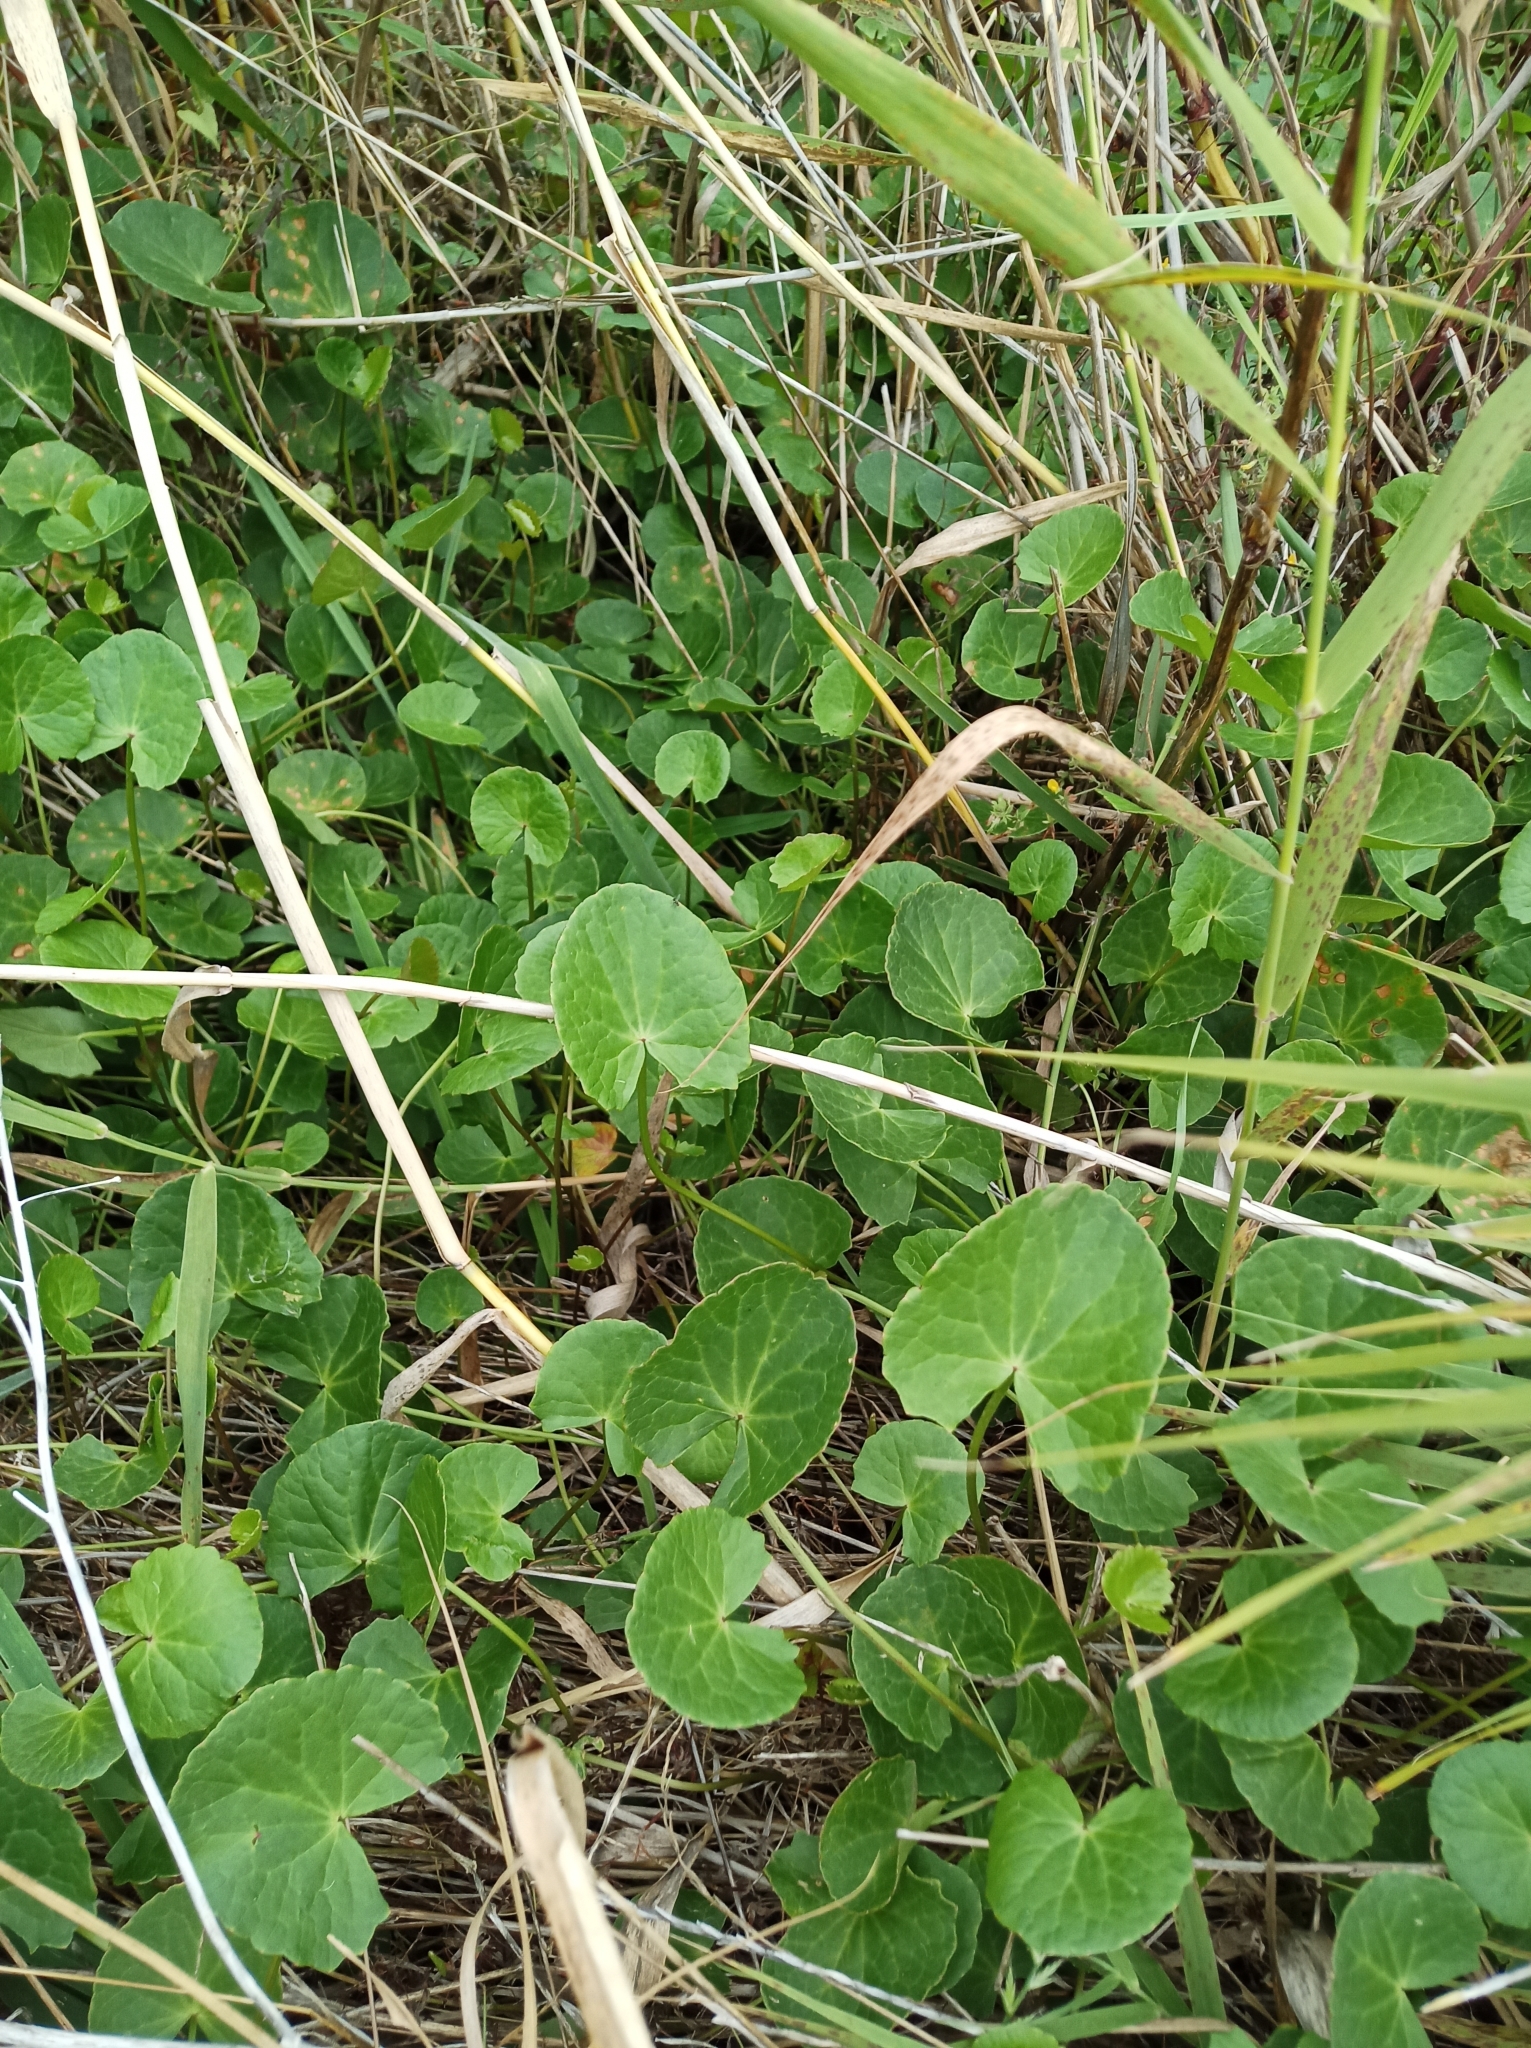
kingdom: Plantae
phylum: Tracheophyta
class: Magnoliopsida
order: Apiales
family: Apiaceae
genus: Centella
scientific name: Centella asiatica
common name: Spadeleaf
